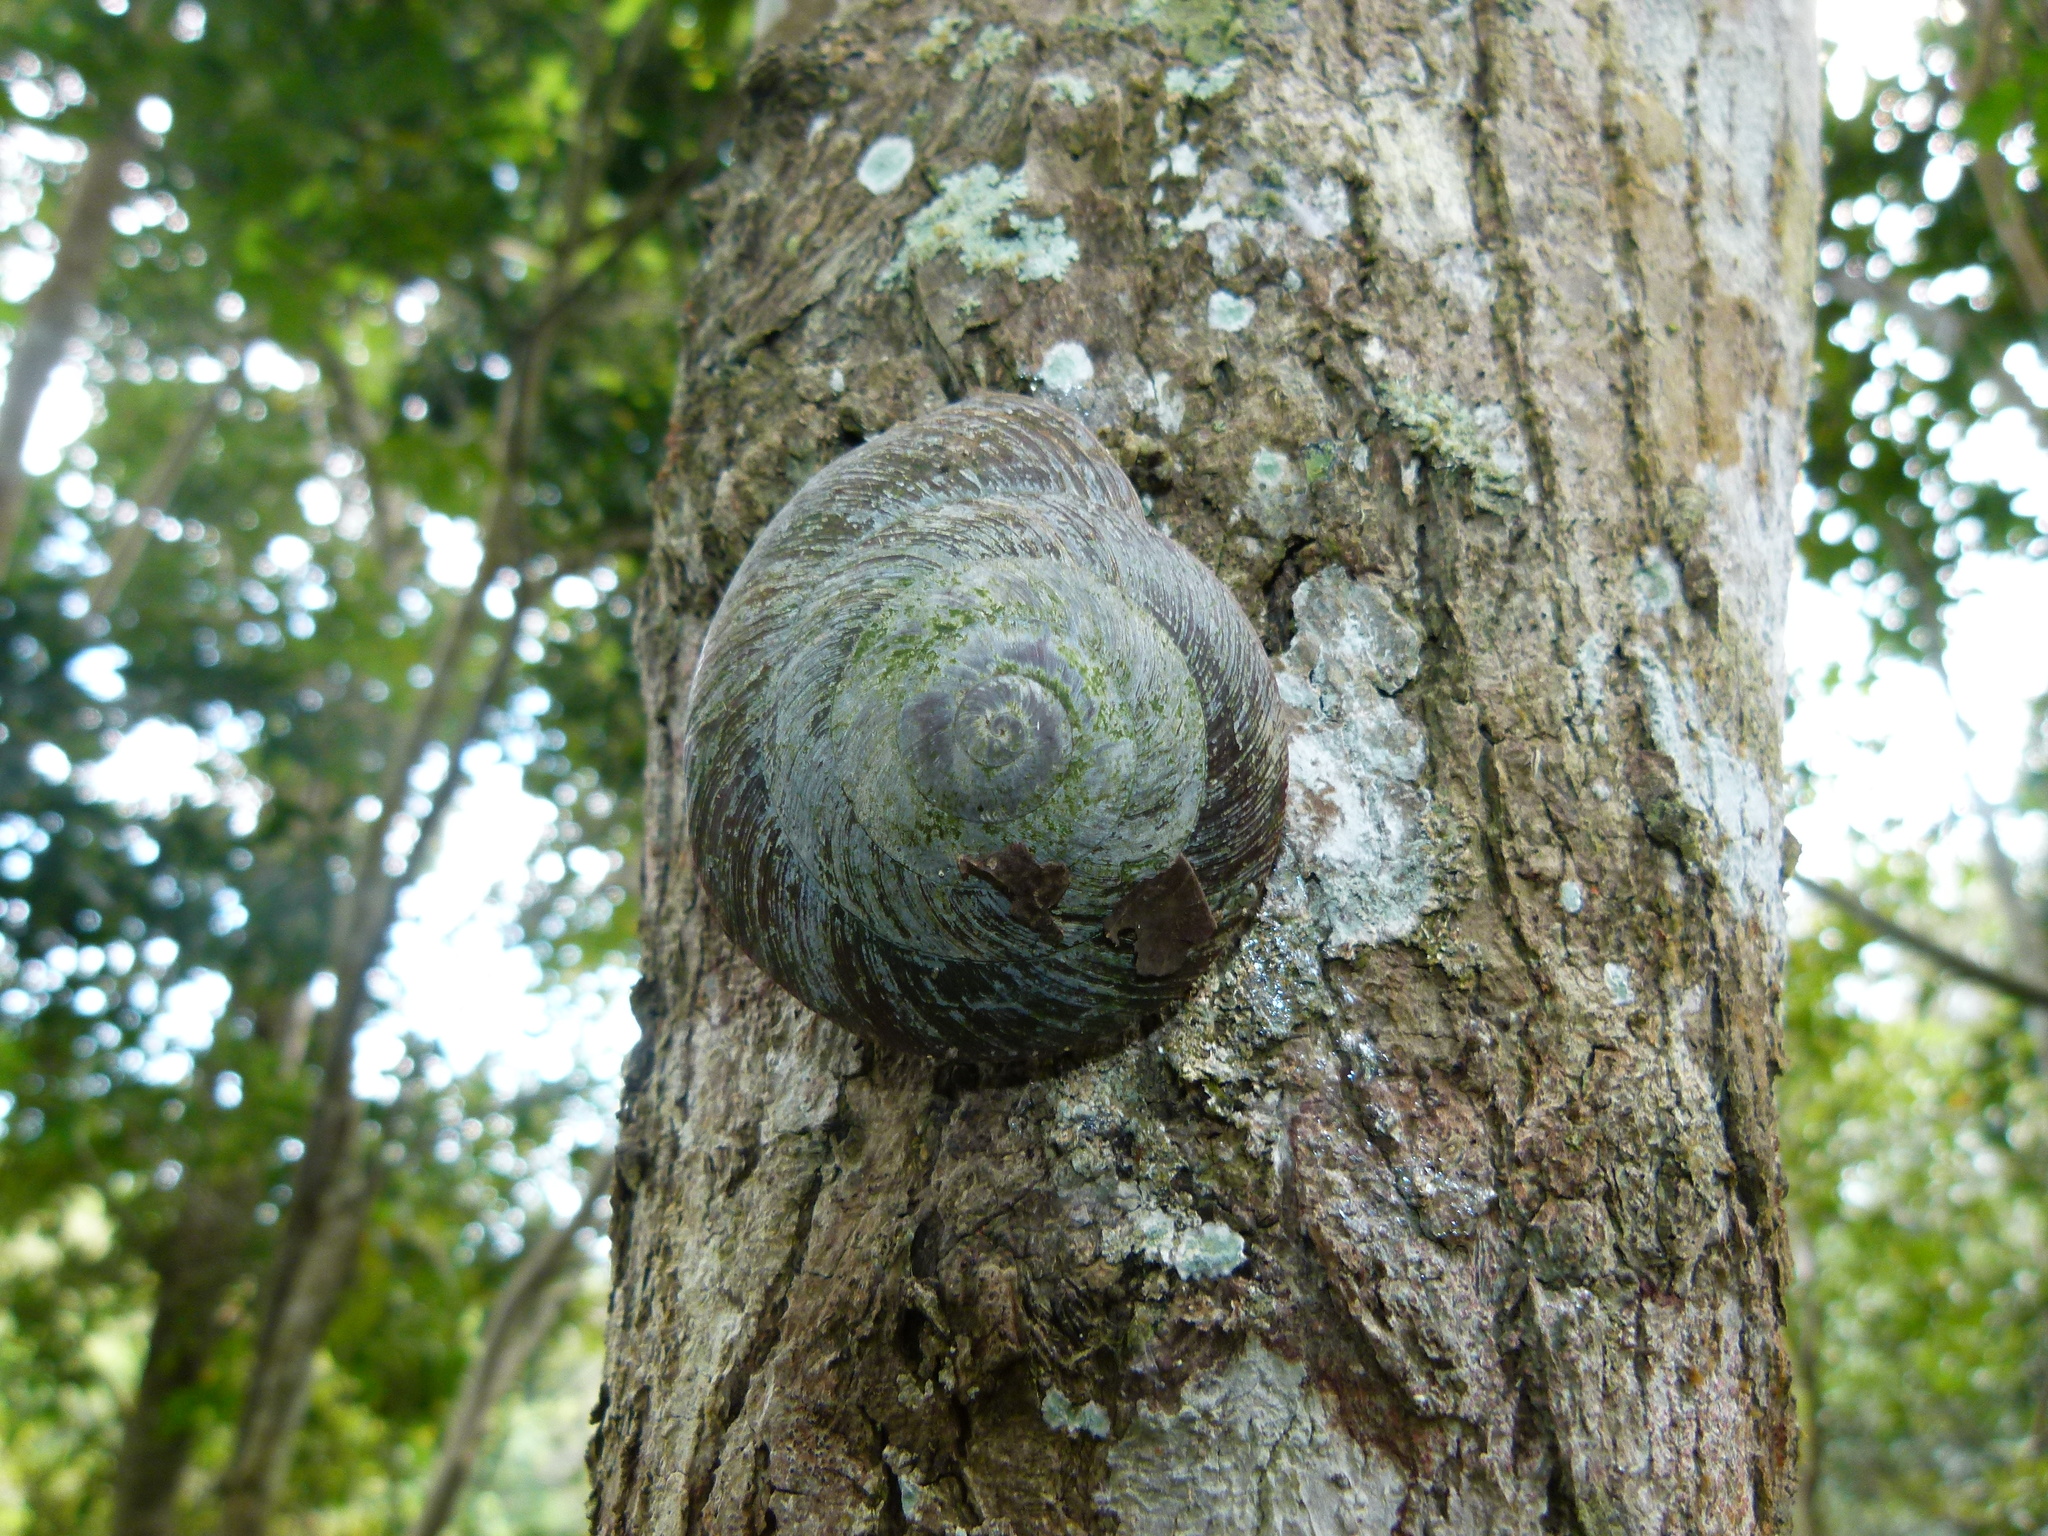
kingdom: Animalia
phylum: Mollusca
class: Gastropoda
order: Stylommatophora
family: Solaropsidae
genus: Caracolus
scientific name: Caracolus carocolla
